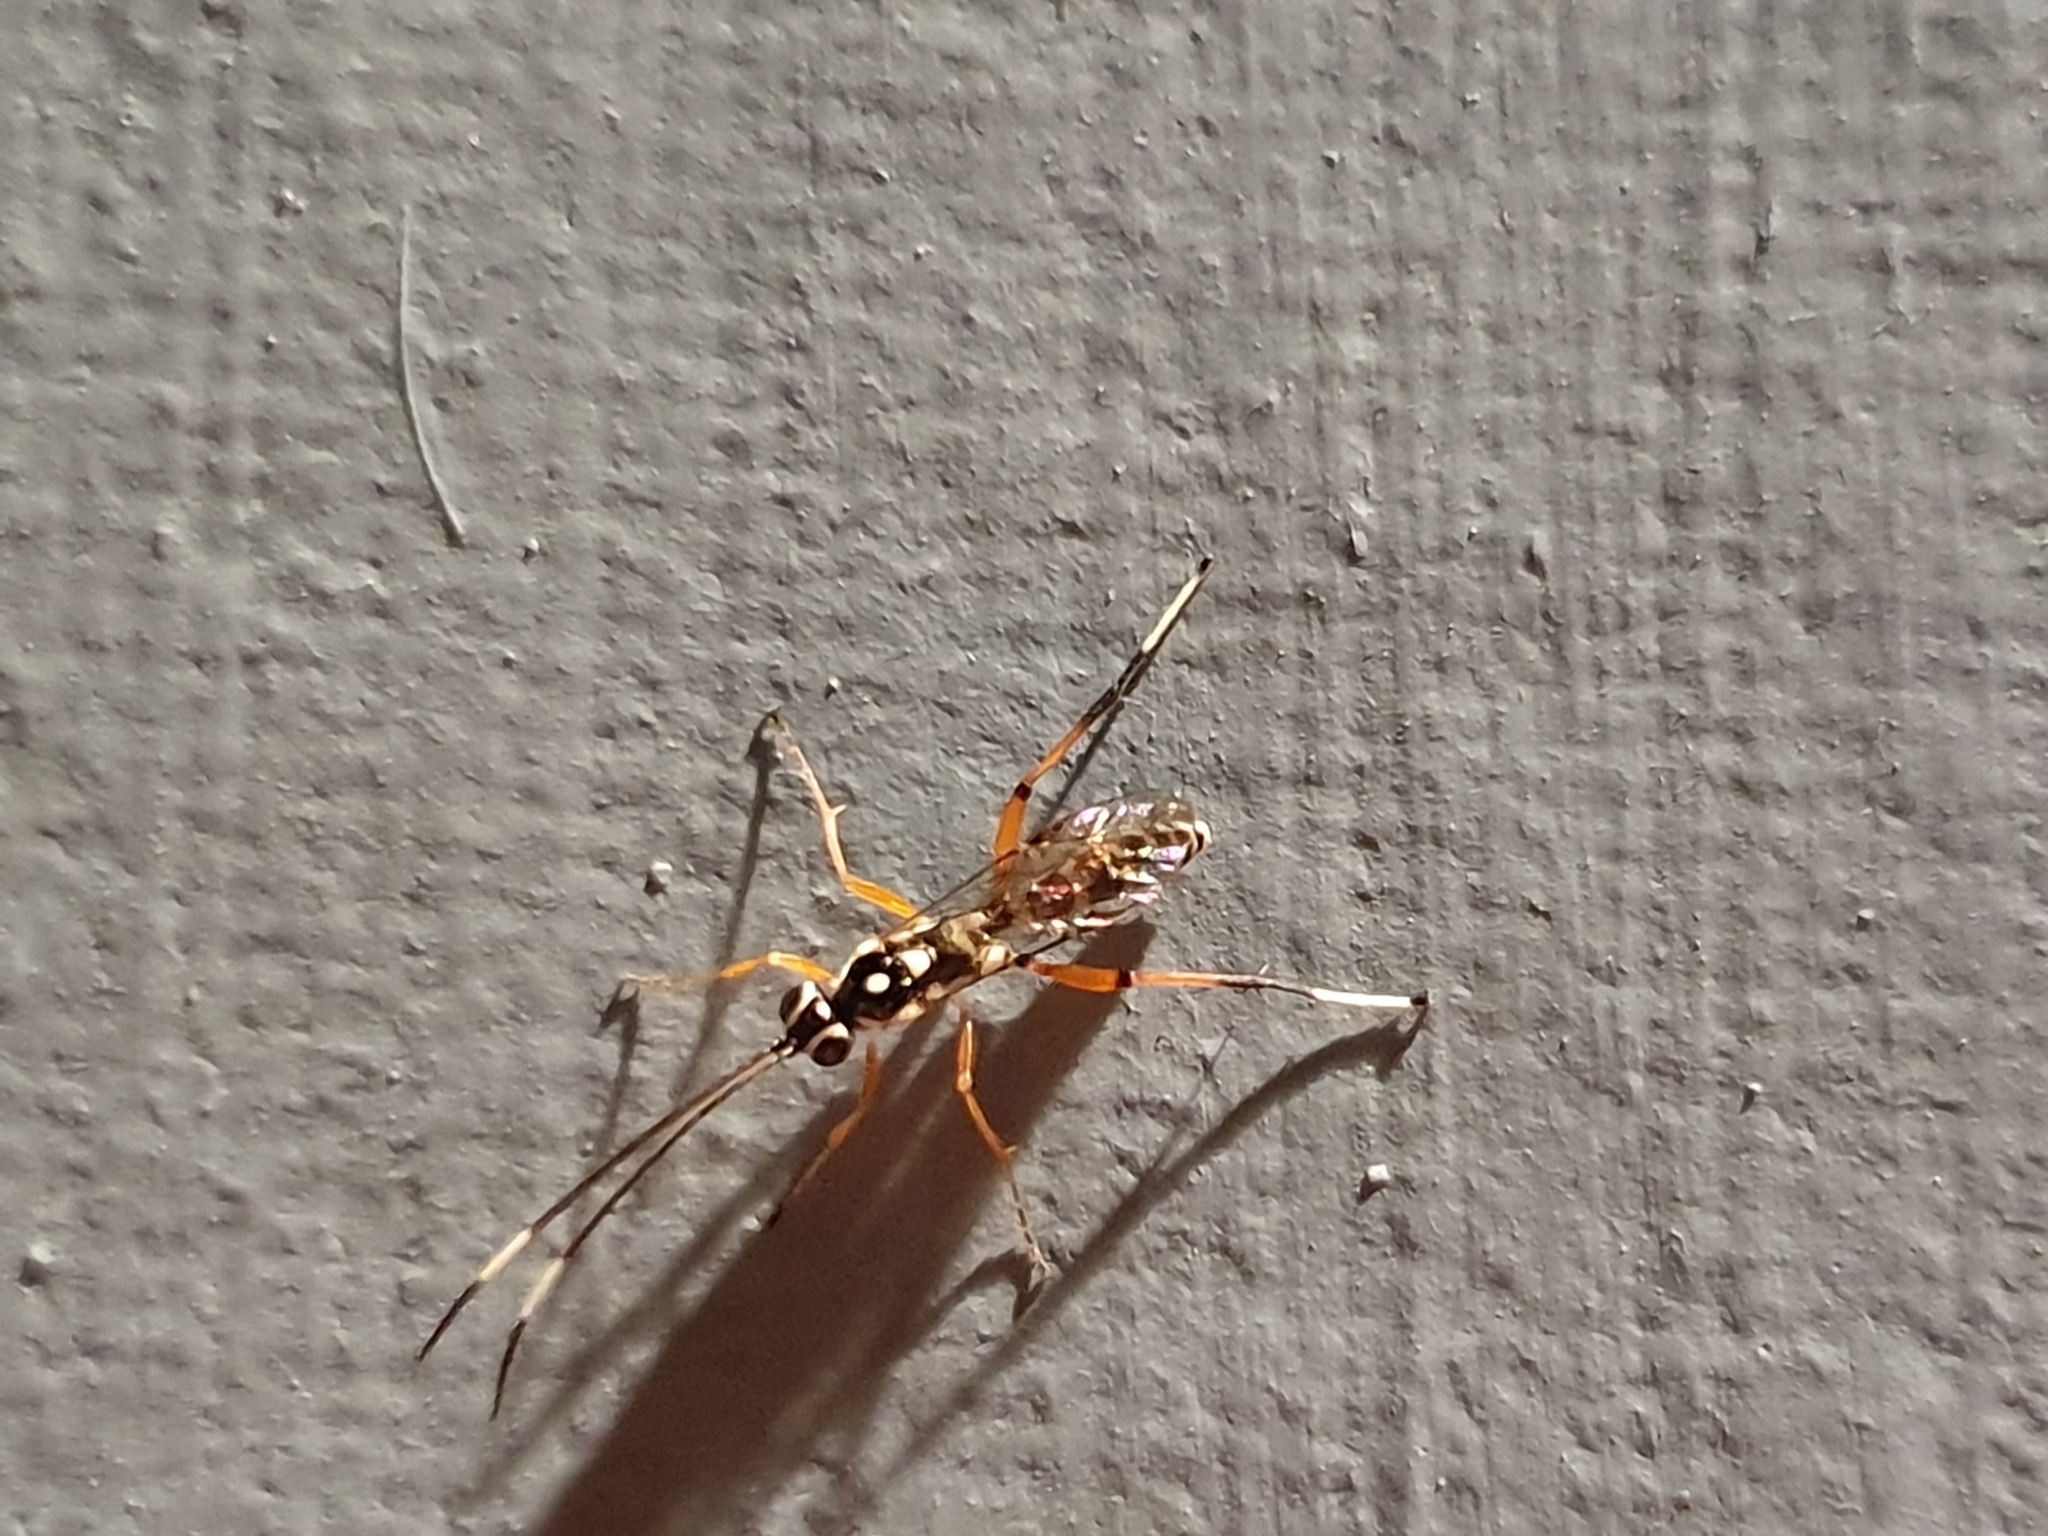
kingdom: Animalia
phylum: Arthropoda
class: Insecta
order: Hymenoptera
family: Ichneumonidae
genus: Glabridorsum
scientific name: Glabridorsum stokesii
